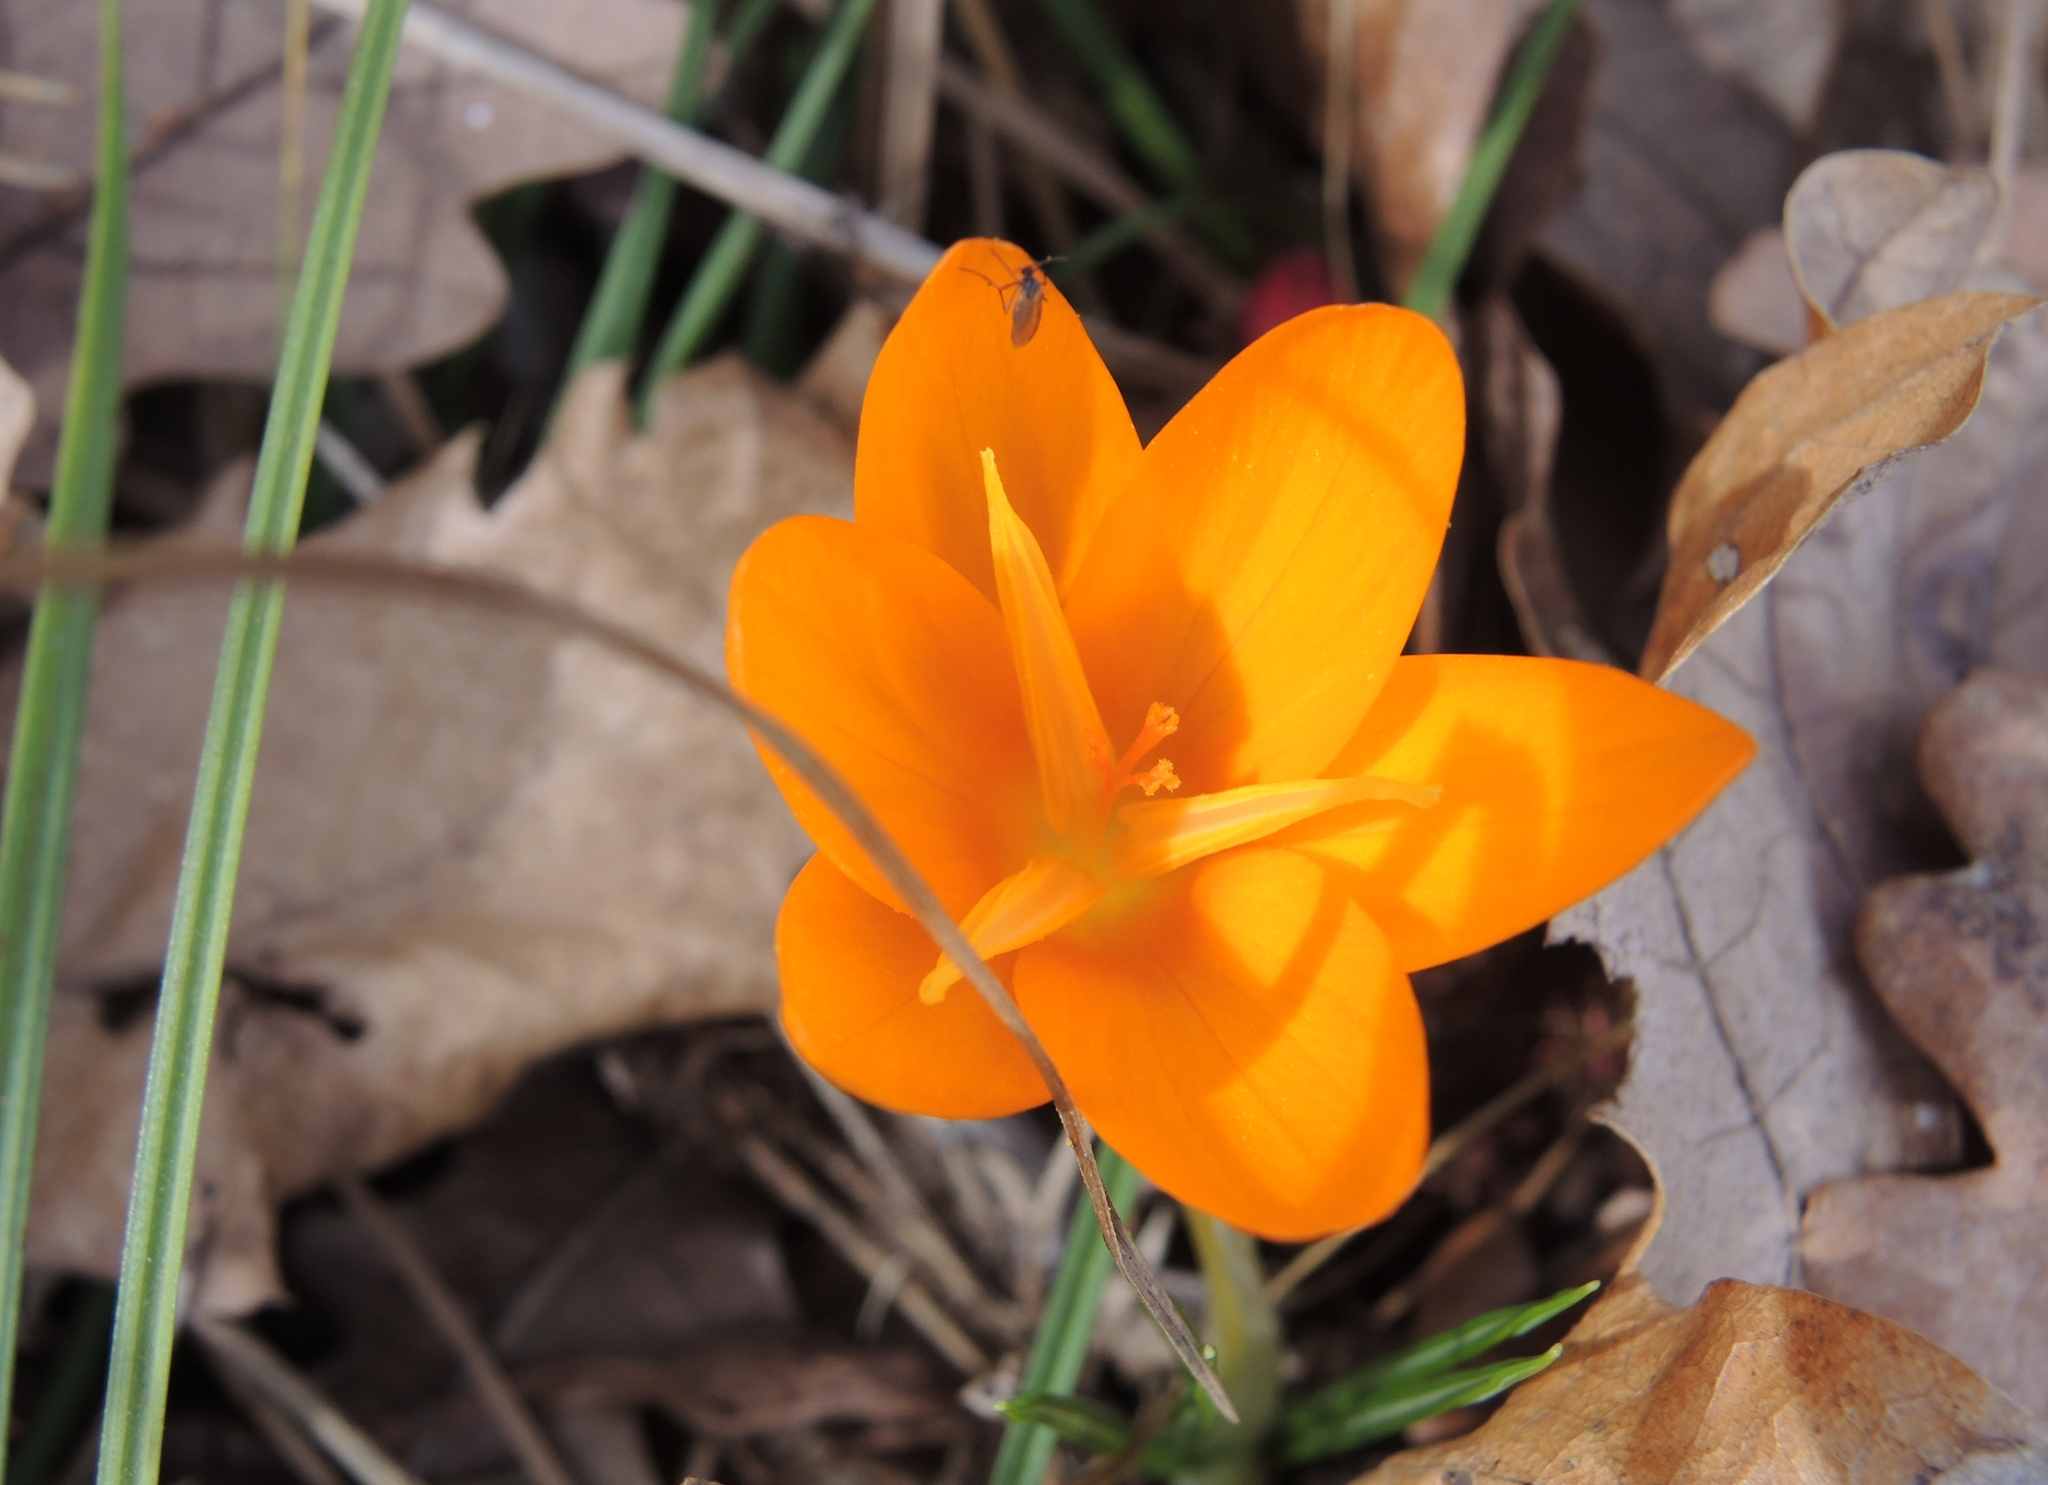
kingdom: Plantae
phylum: Tracheophyta
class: Liliopsida
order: Asparagales
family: Iridaceae
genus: Crocus
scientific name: Crocus olivieri
